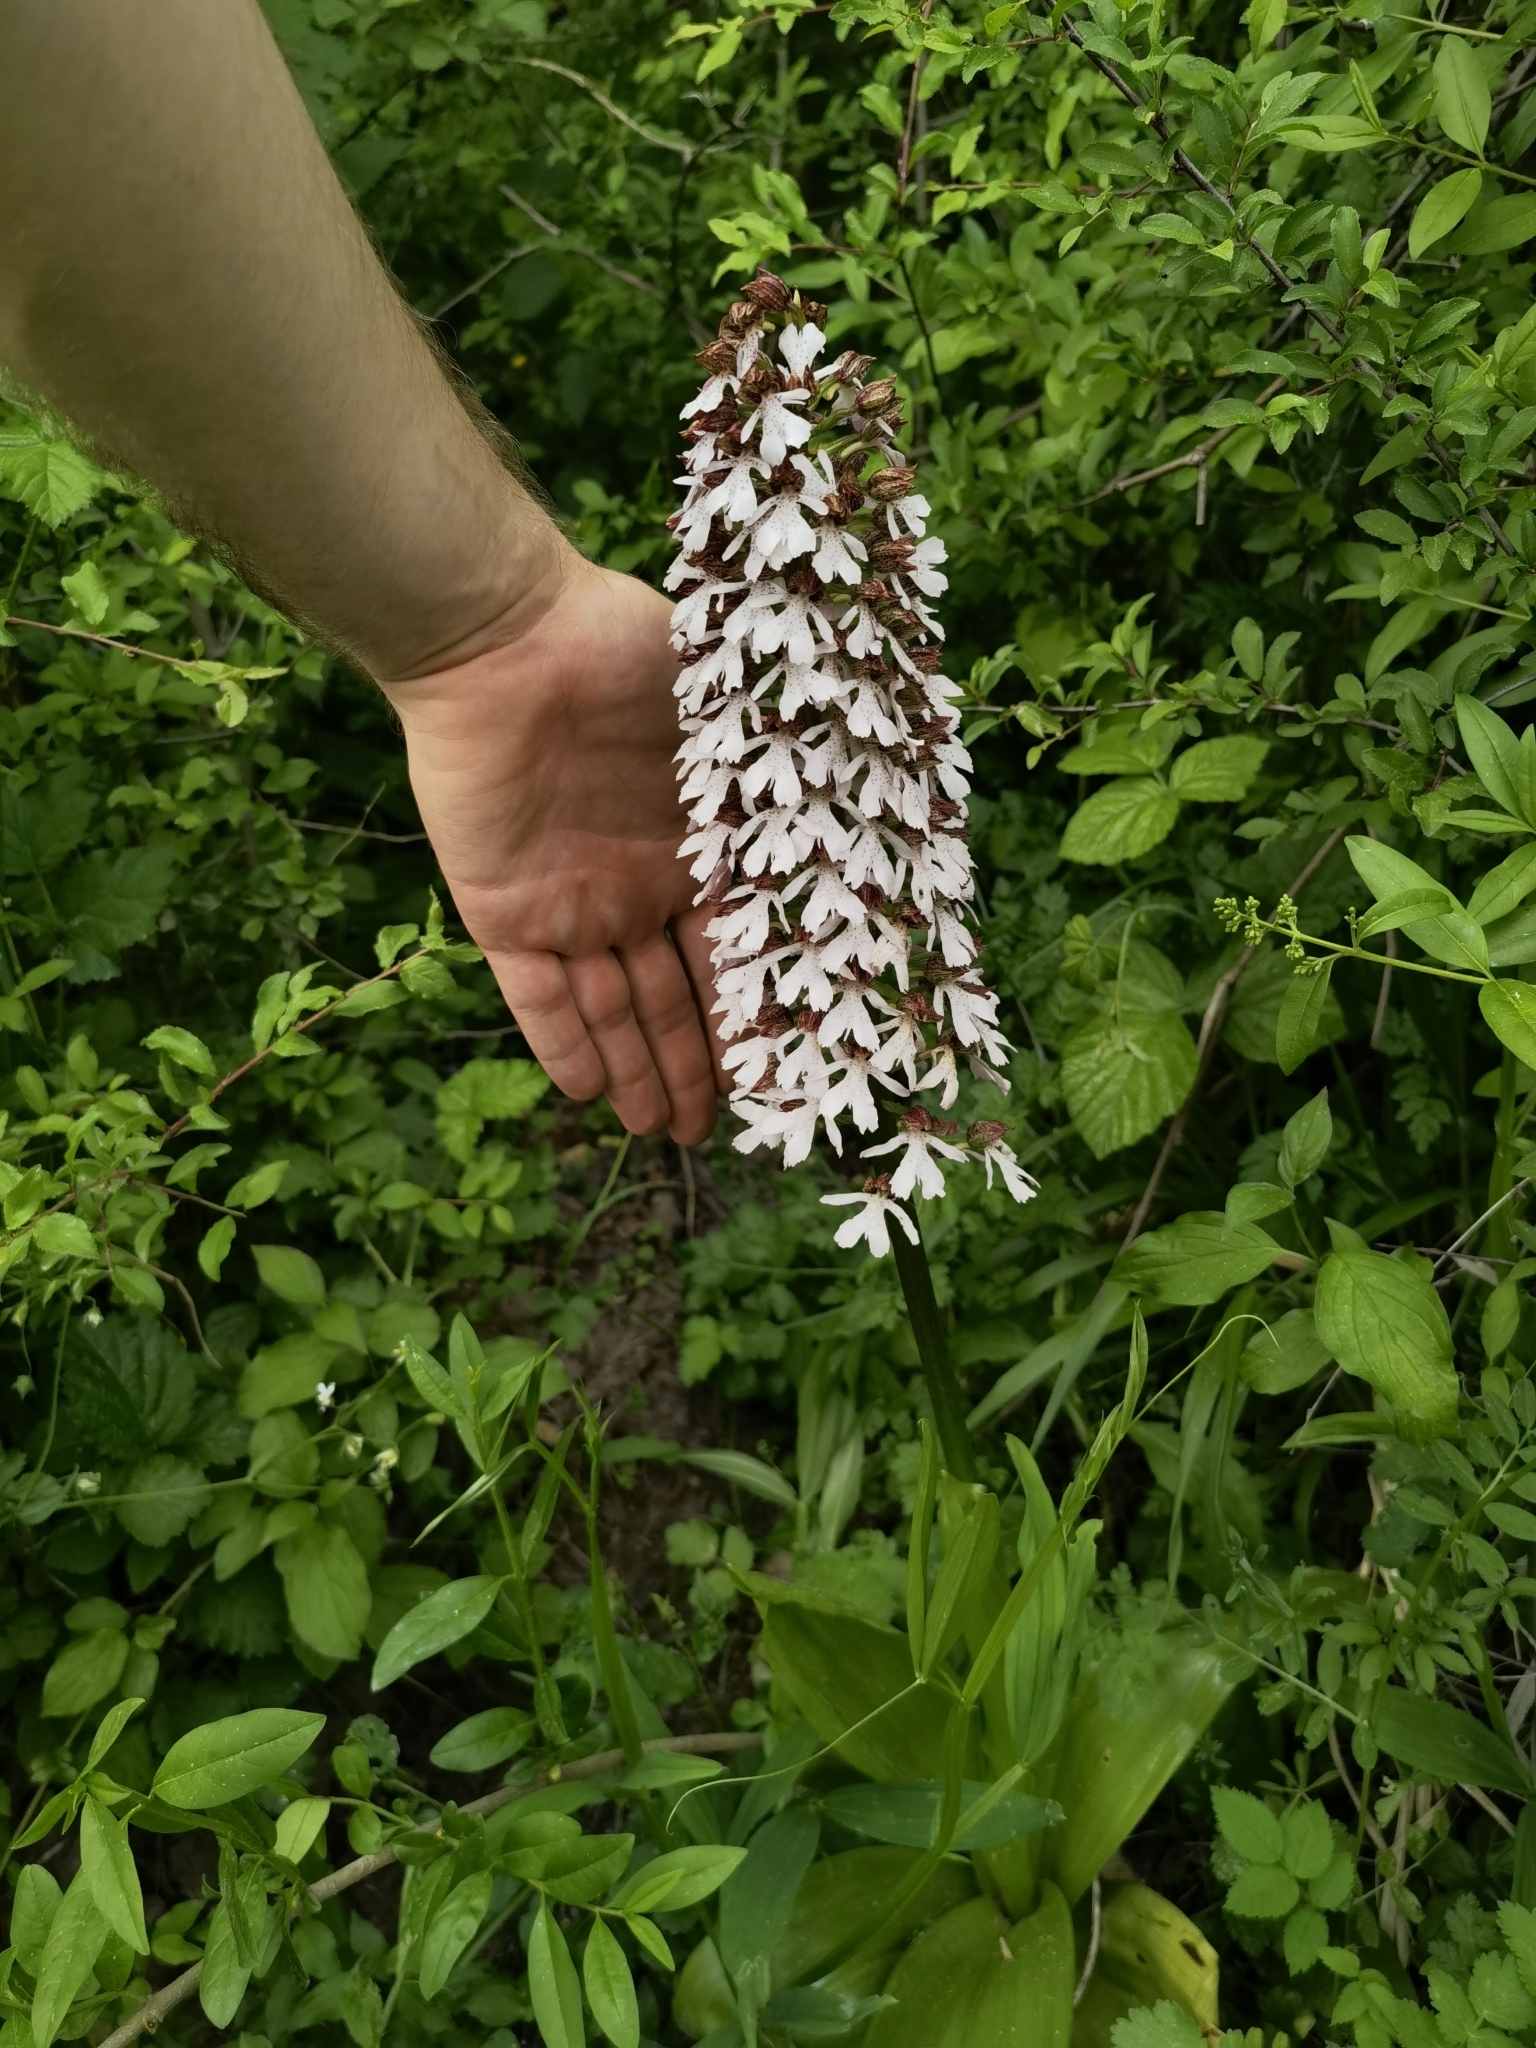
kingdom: Plantae
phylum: Tracheophyta
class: Liliopsida
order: Asparagales
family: Orchidaceae
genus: Orchis
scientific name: Orchis purpurea
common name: Lady orchid
